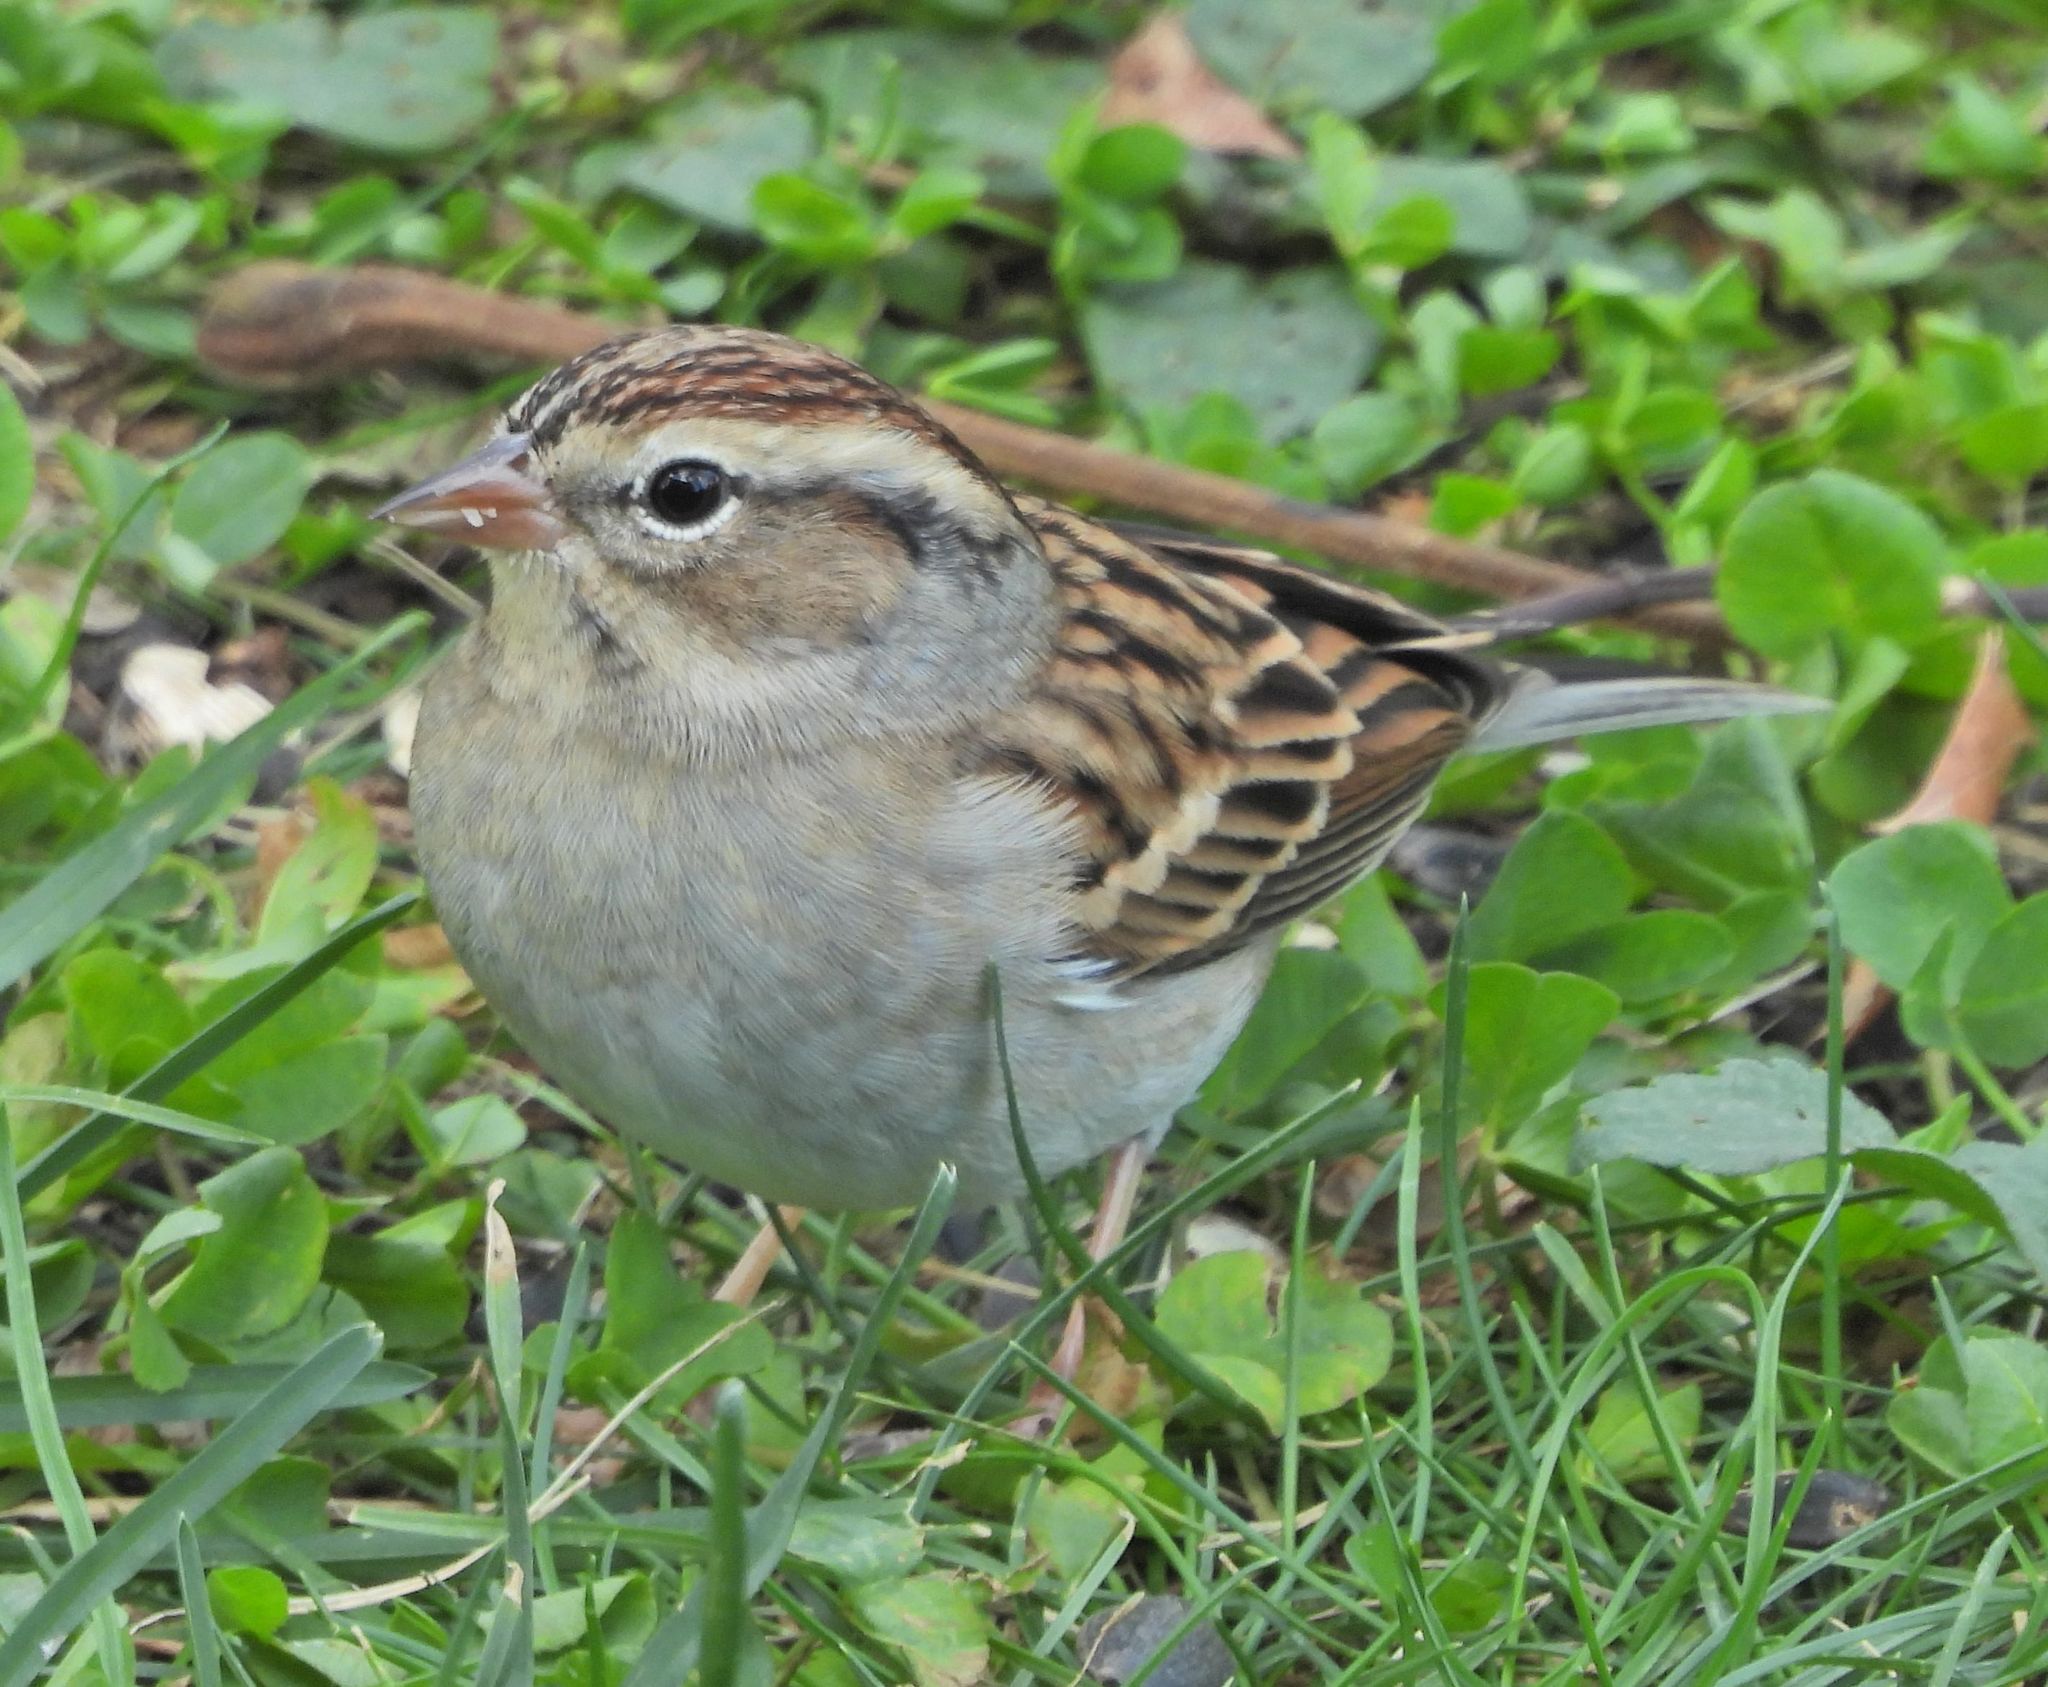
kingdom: Animalia
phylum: Chordata
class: Aves
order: Passeriformes
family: Passerellidae
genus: Spizella
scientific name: Spizella passerina
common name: Chipping sparrow
